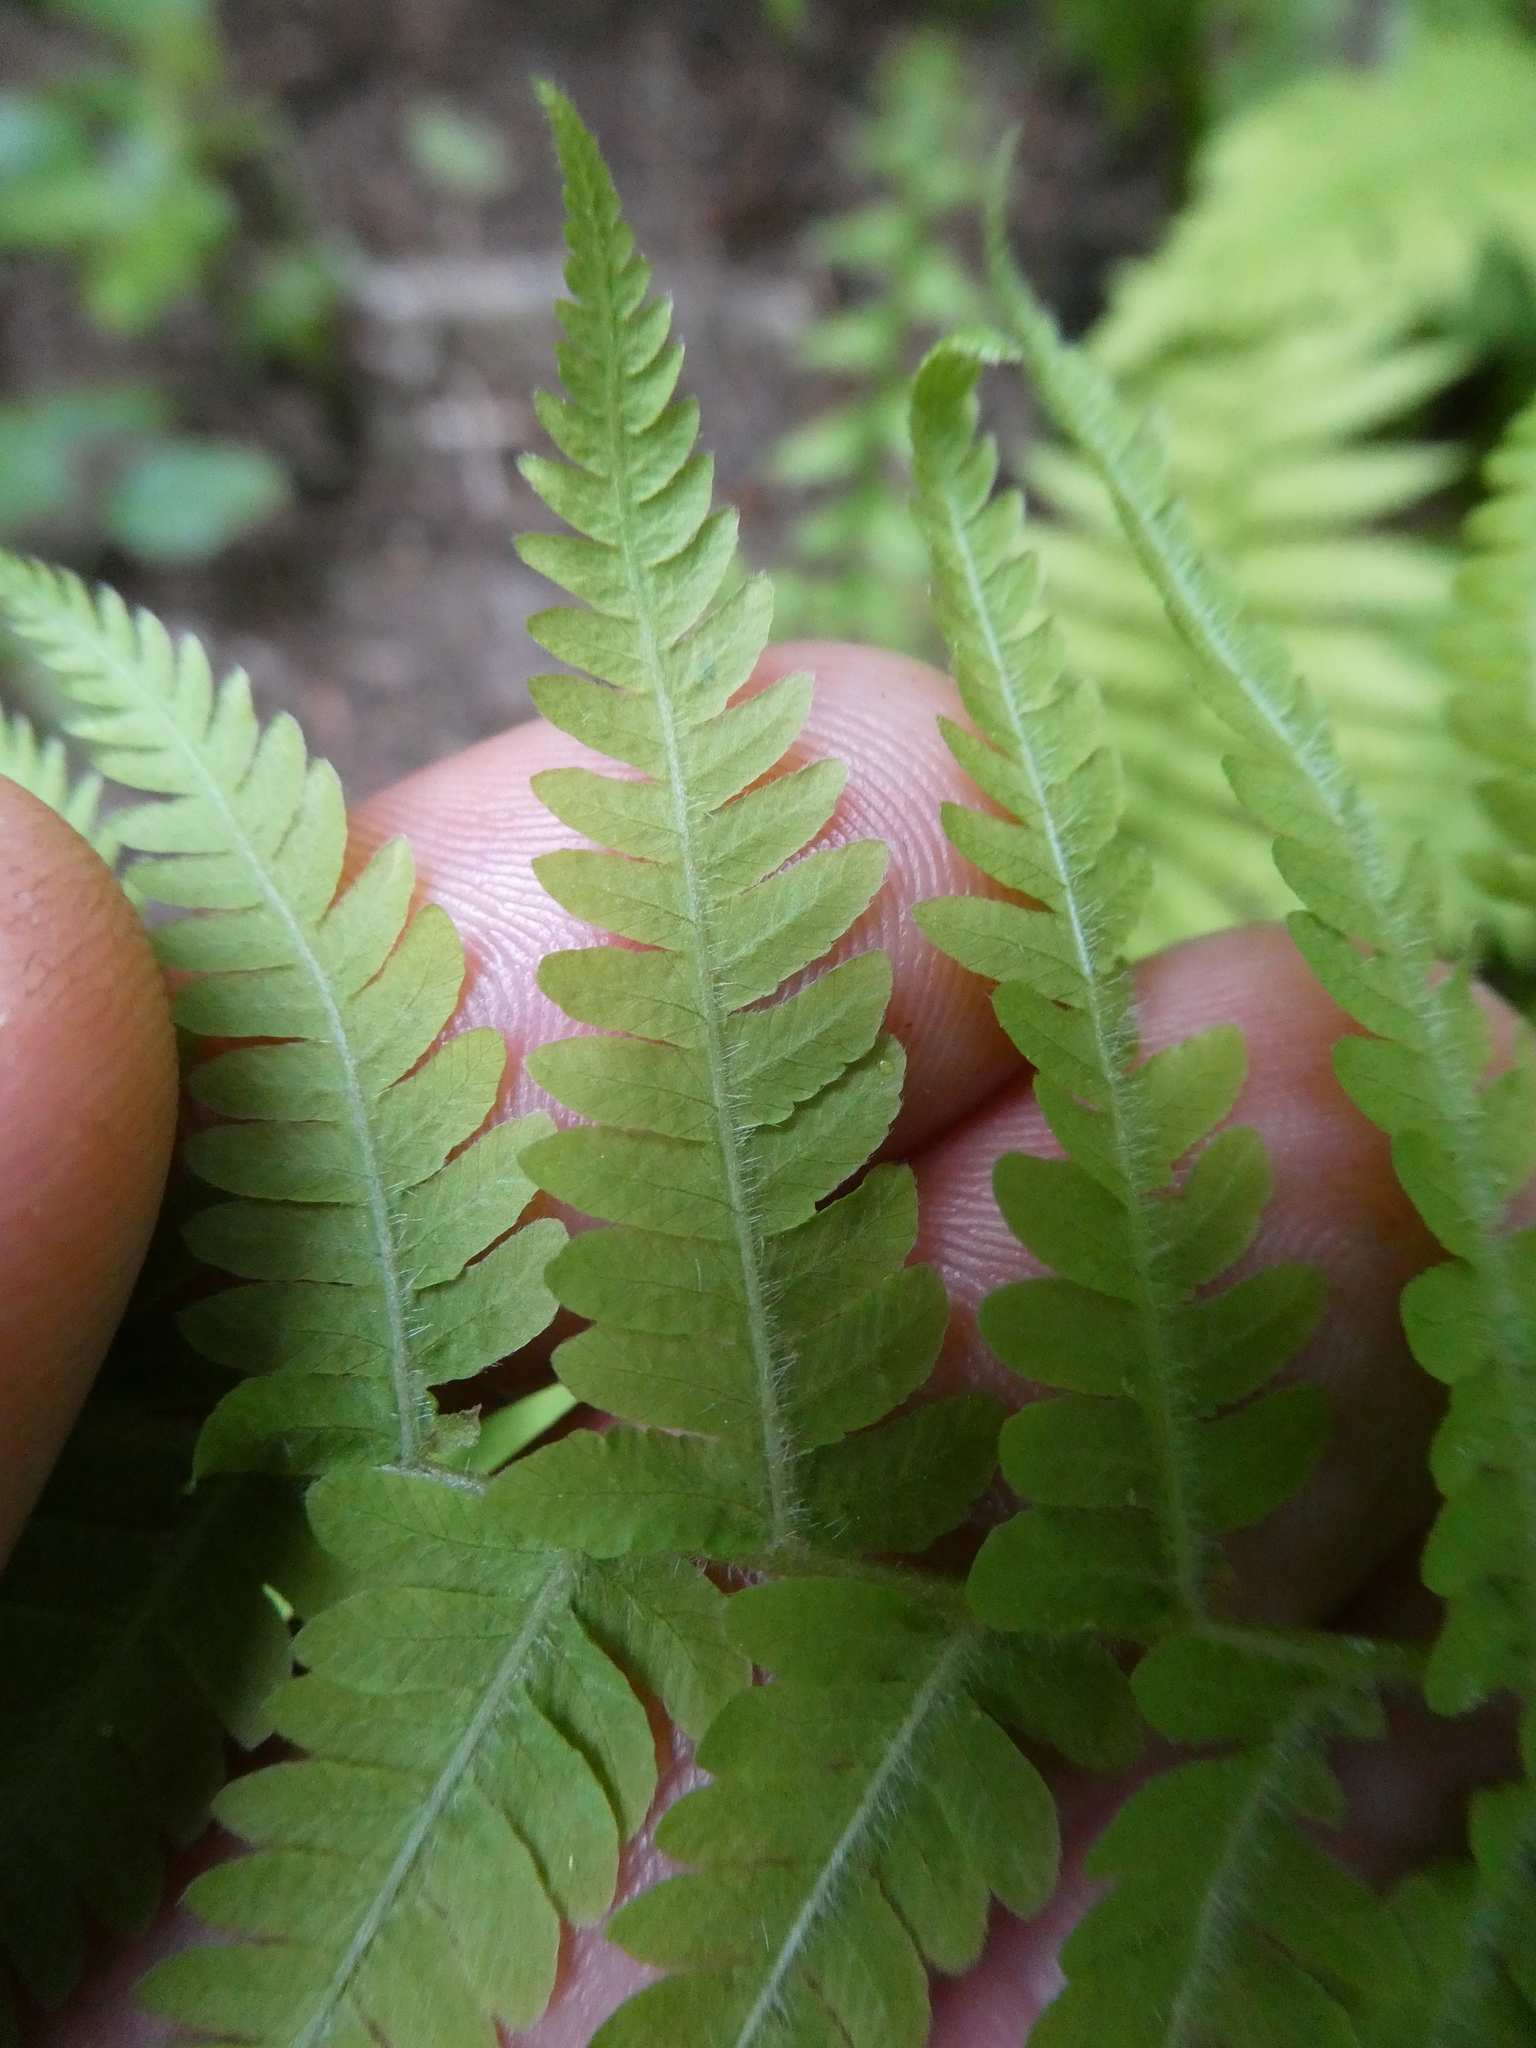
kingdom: Plantae
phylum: Tracheophyta
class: Polypodiopsida
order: Polypodiales
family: Thelypteridaceae
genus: Amauropelta
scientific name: Amauropelta noveboracensis
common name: New york fern
